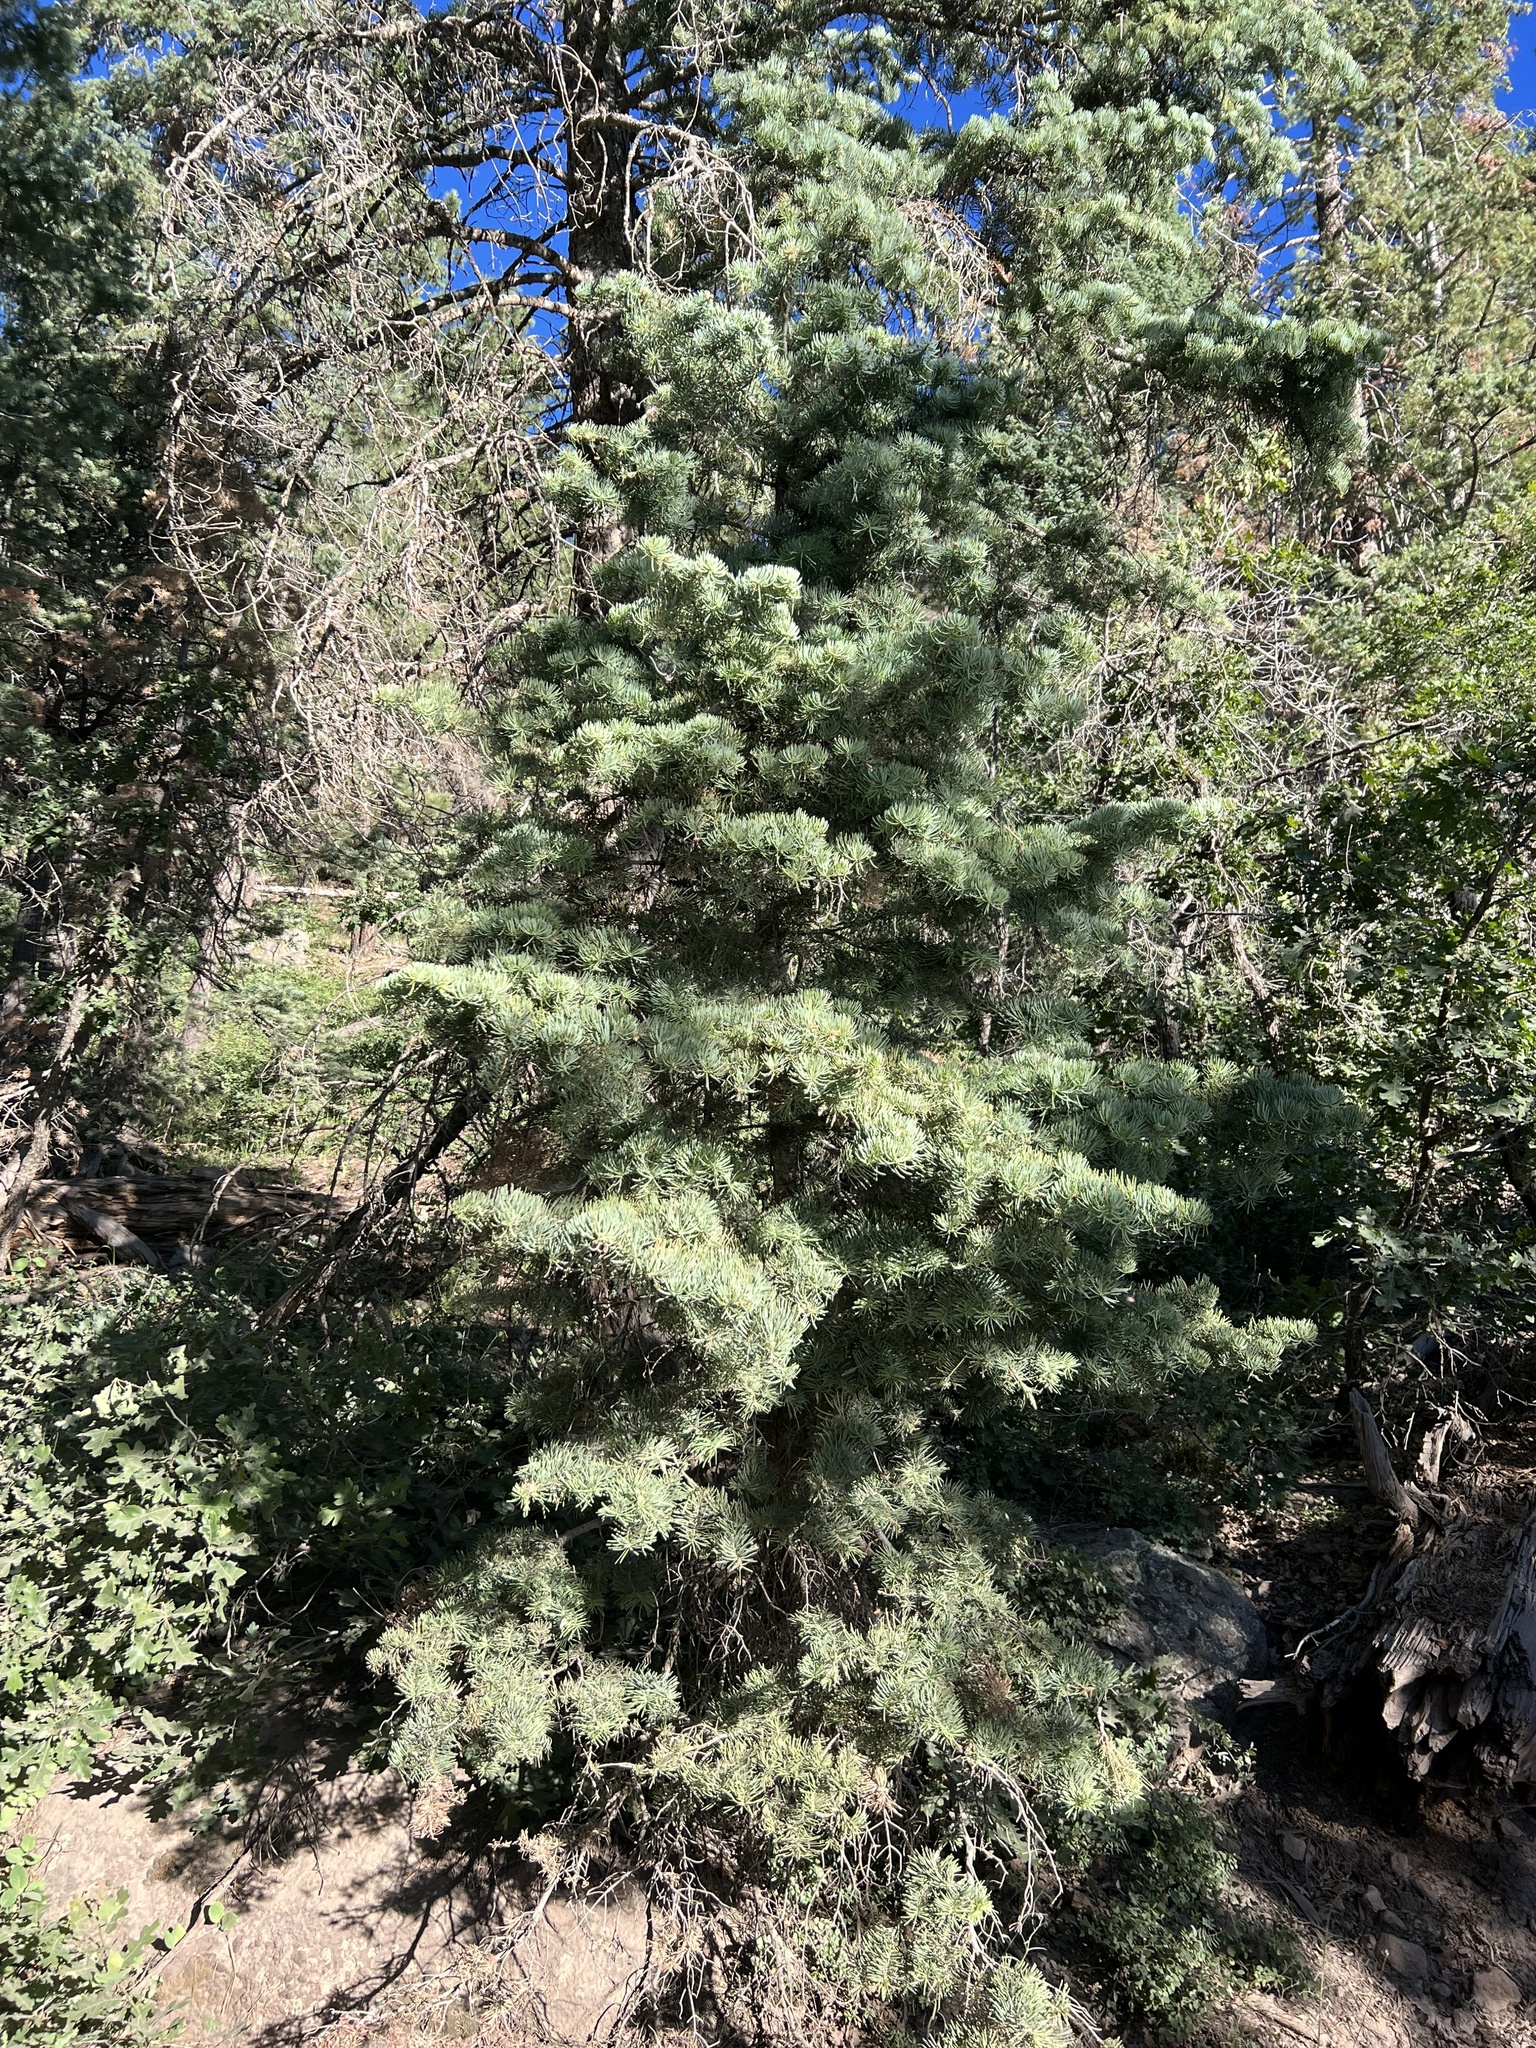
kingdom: Plantae
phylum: Tracheophyta
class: Pinopsida
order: Pinales
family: Pinaceae
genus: Abies
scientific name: Abies concolor
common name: Colorado fir
